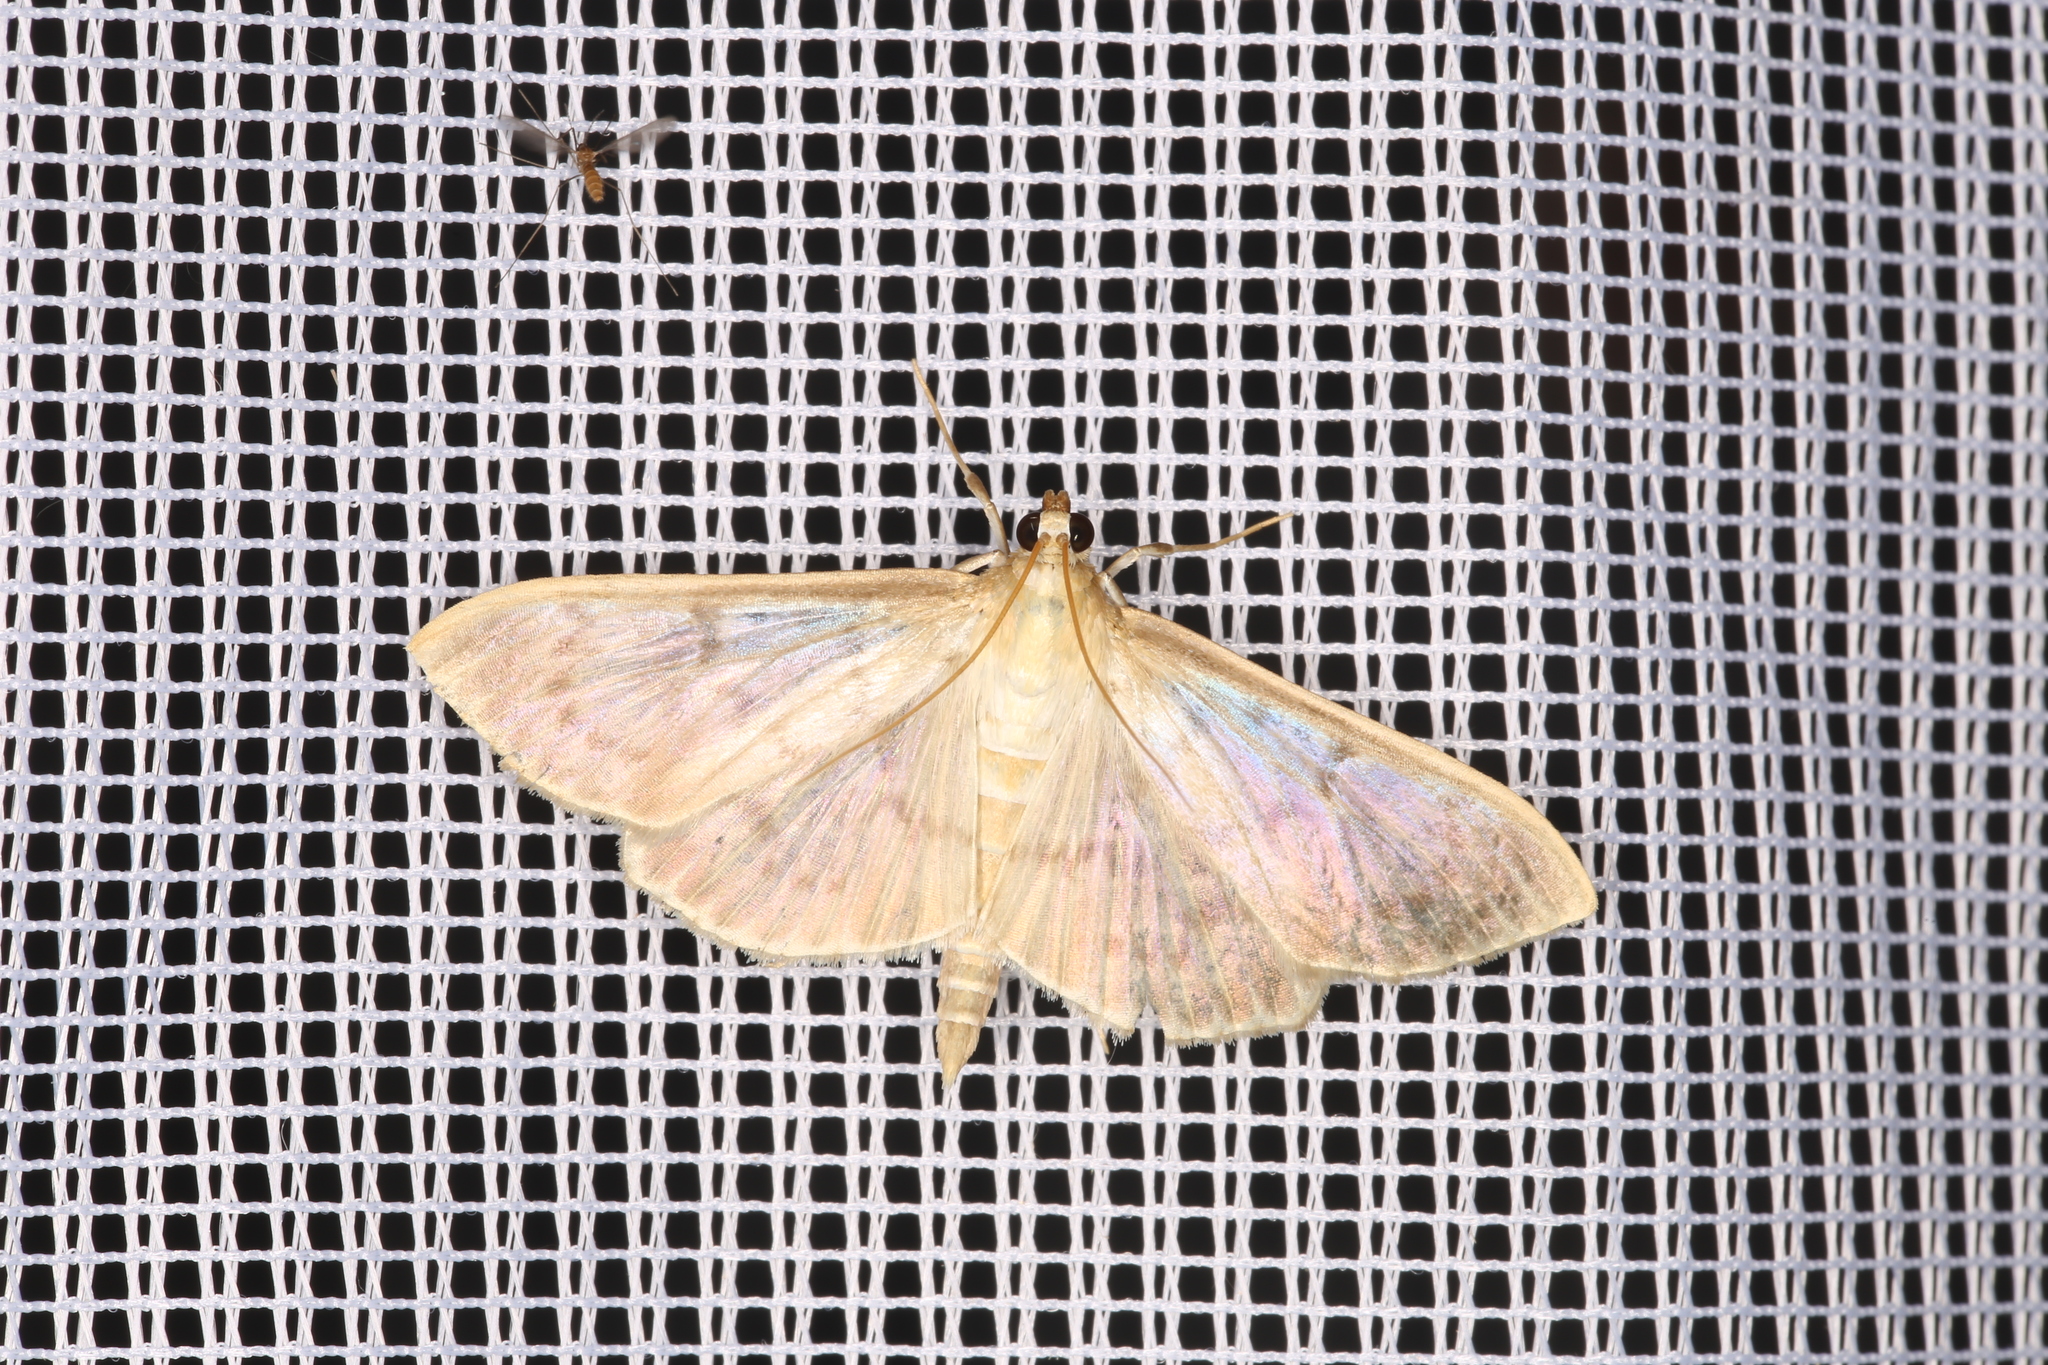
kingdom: Animalia
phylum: Arthropoda
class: Insecta
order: Lepidoptera
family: Crambidae
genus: Patania
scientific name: Patania ruralis
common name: Mother of pearl
